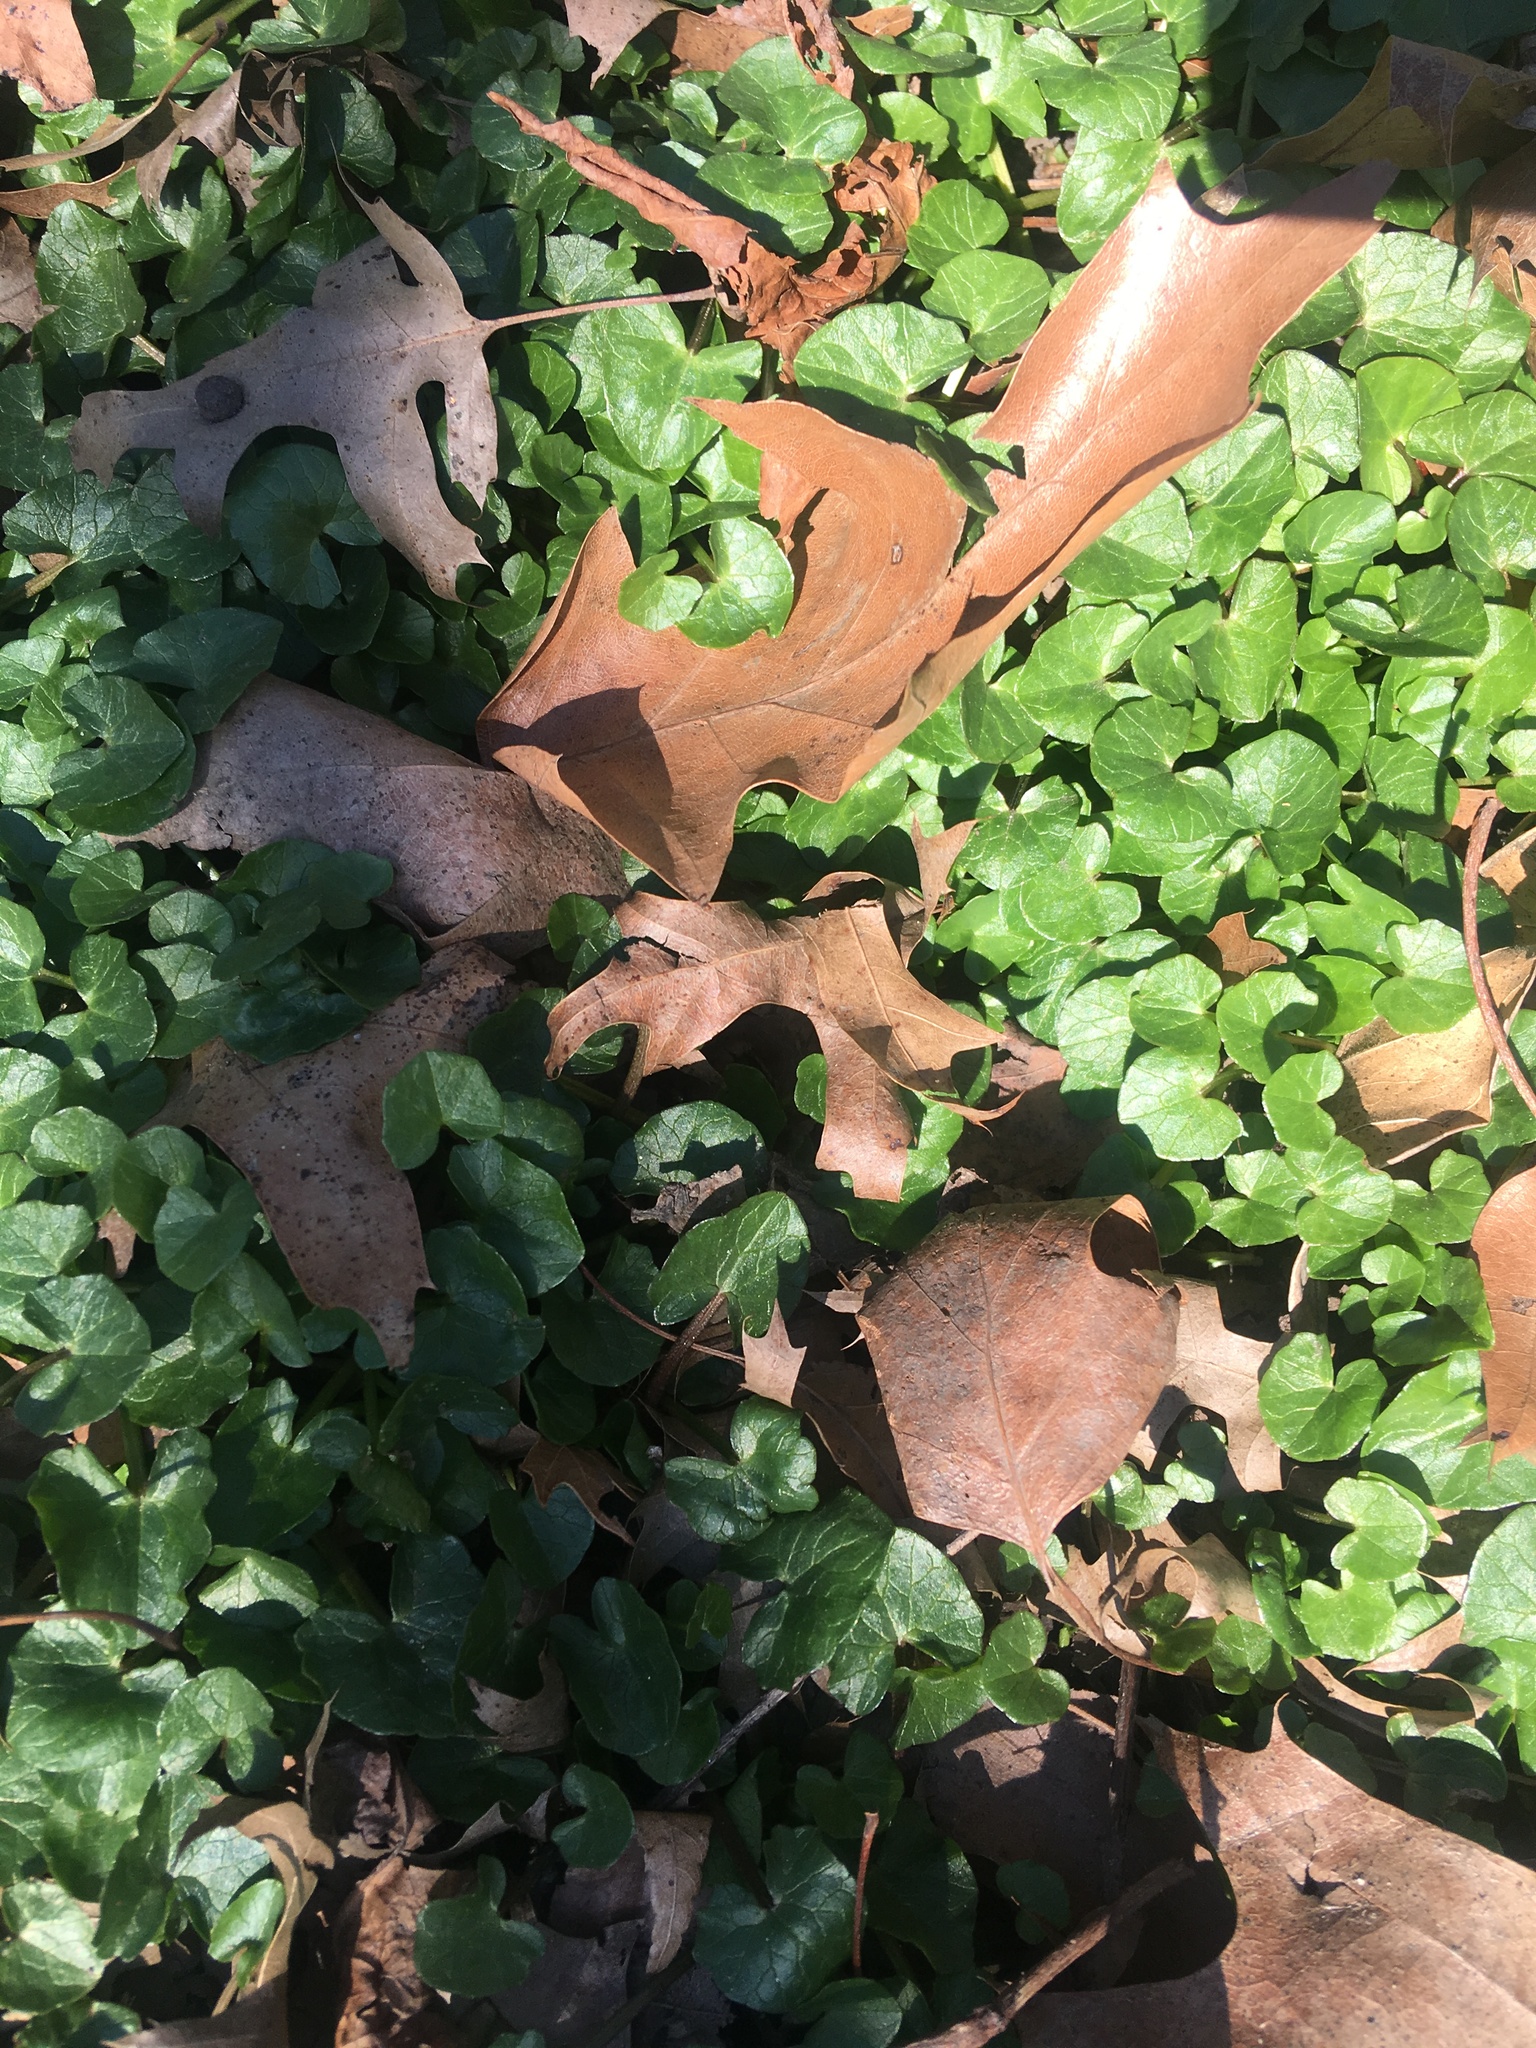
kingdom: Plantae
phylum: Tracheophyta
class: Magnoliopsida
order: Ranunculales
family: Ranunculaceae
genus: Ficaria
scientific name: Ficaria verna
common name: Lesser celandine
